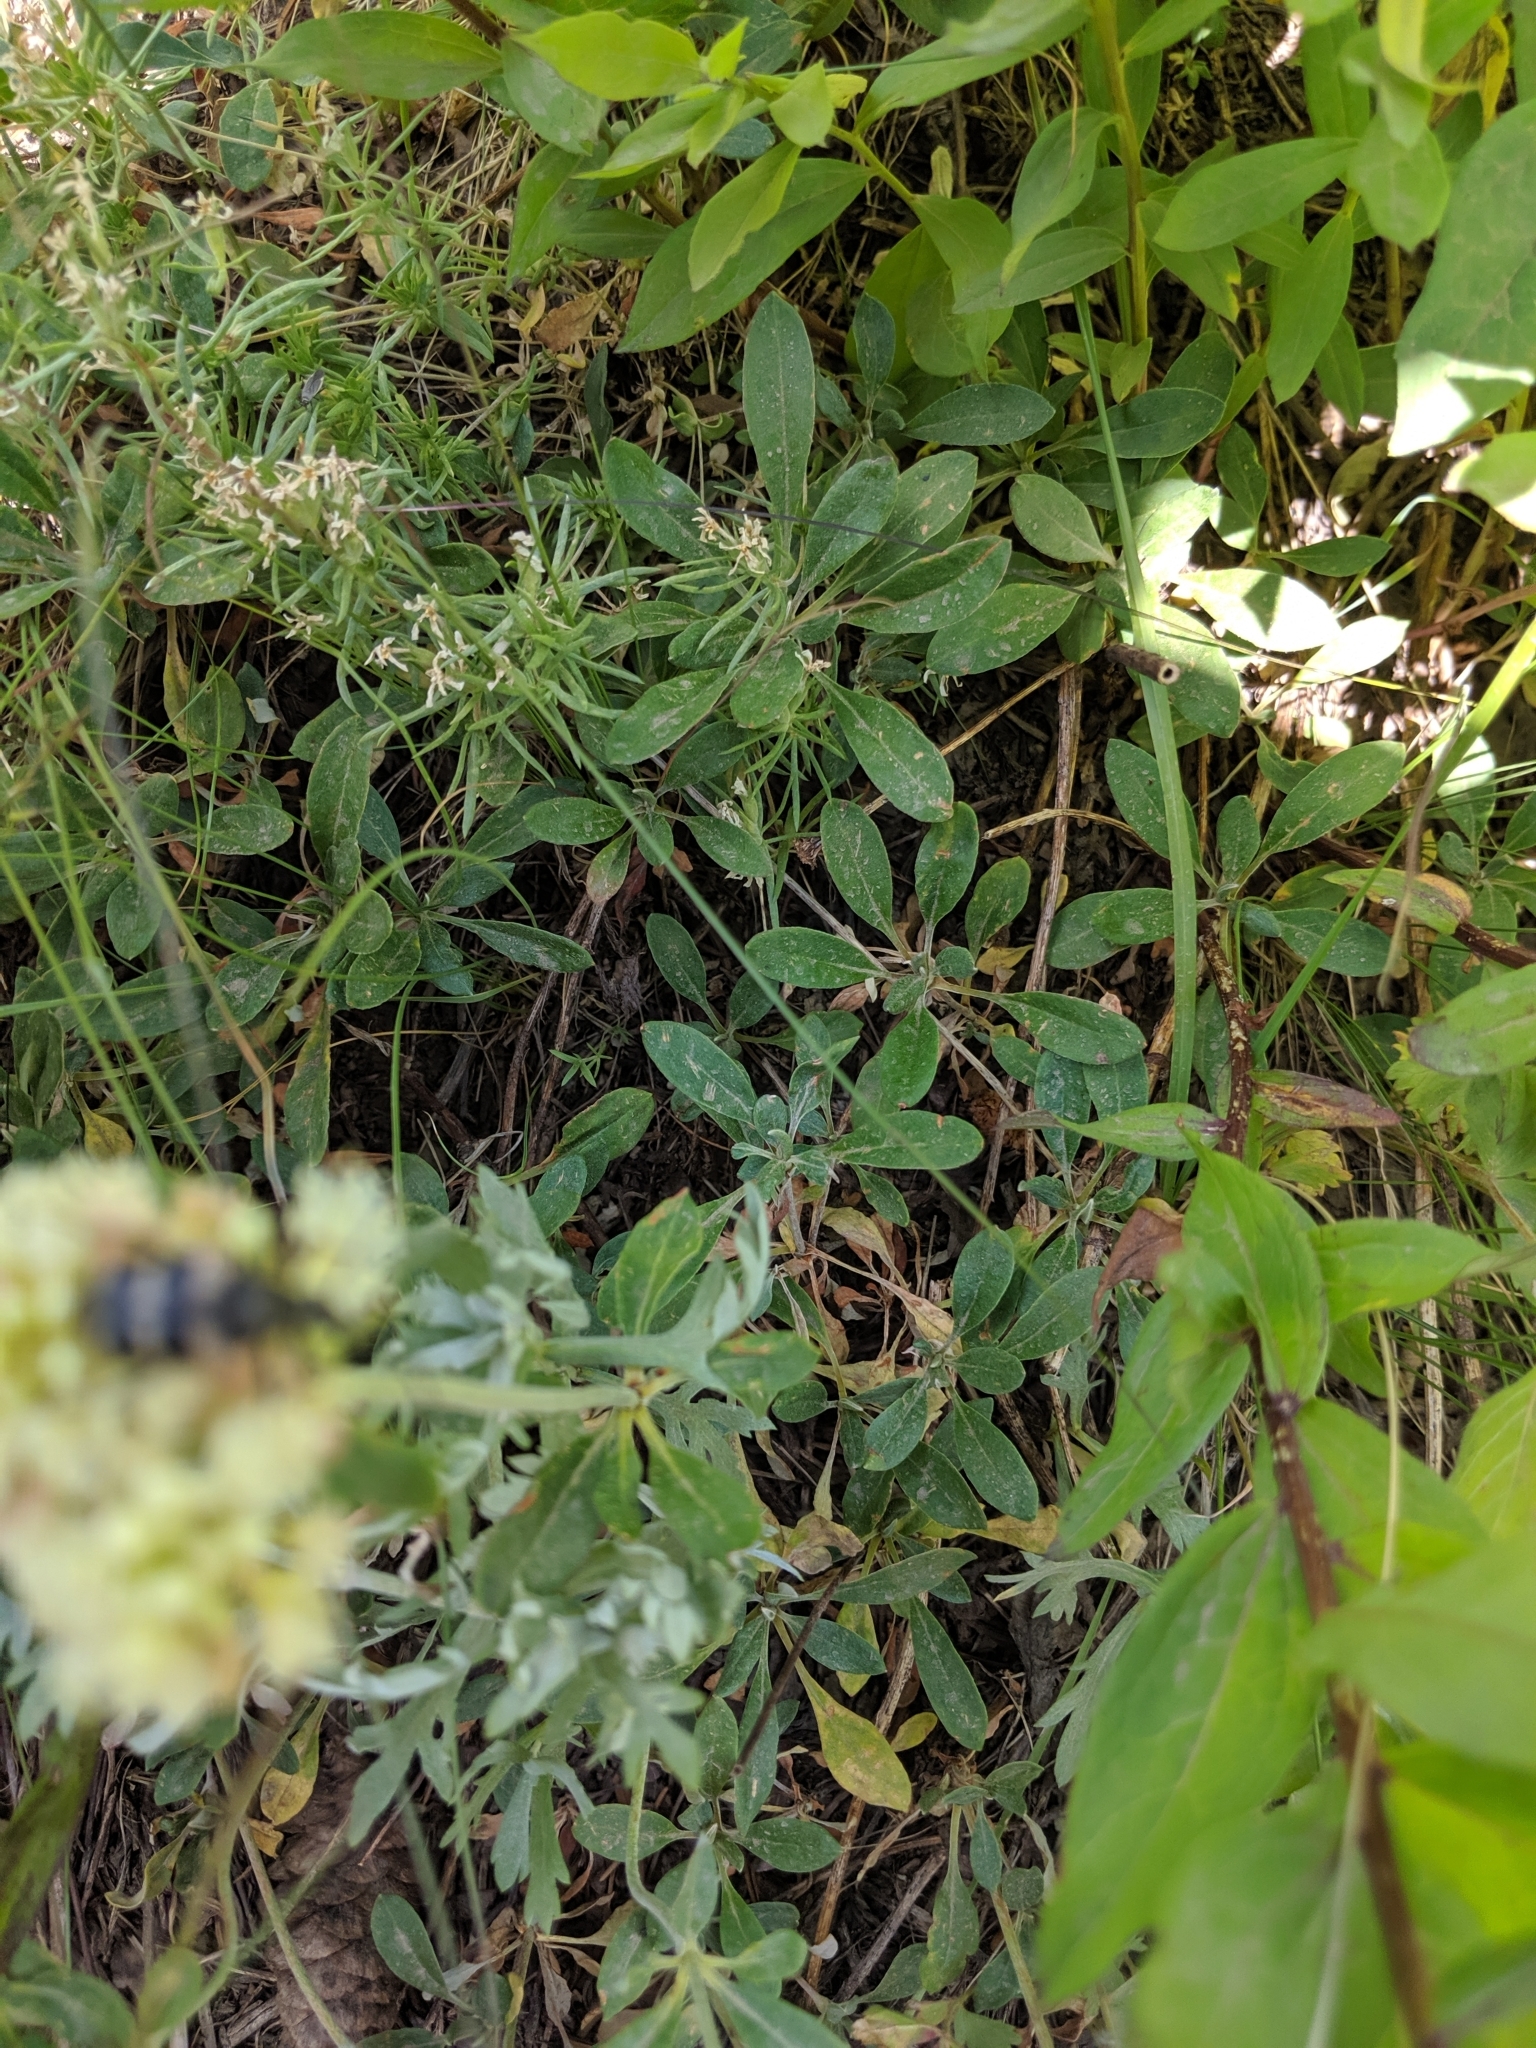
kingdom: Plantae
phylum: Tracheophyta
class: Magnoliopsida
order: Caryophyllales
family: Polygonaceae
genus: Eriogonum
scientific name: Eriogonum heracleoides
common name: Wyeth's buckwheat
